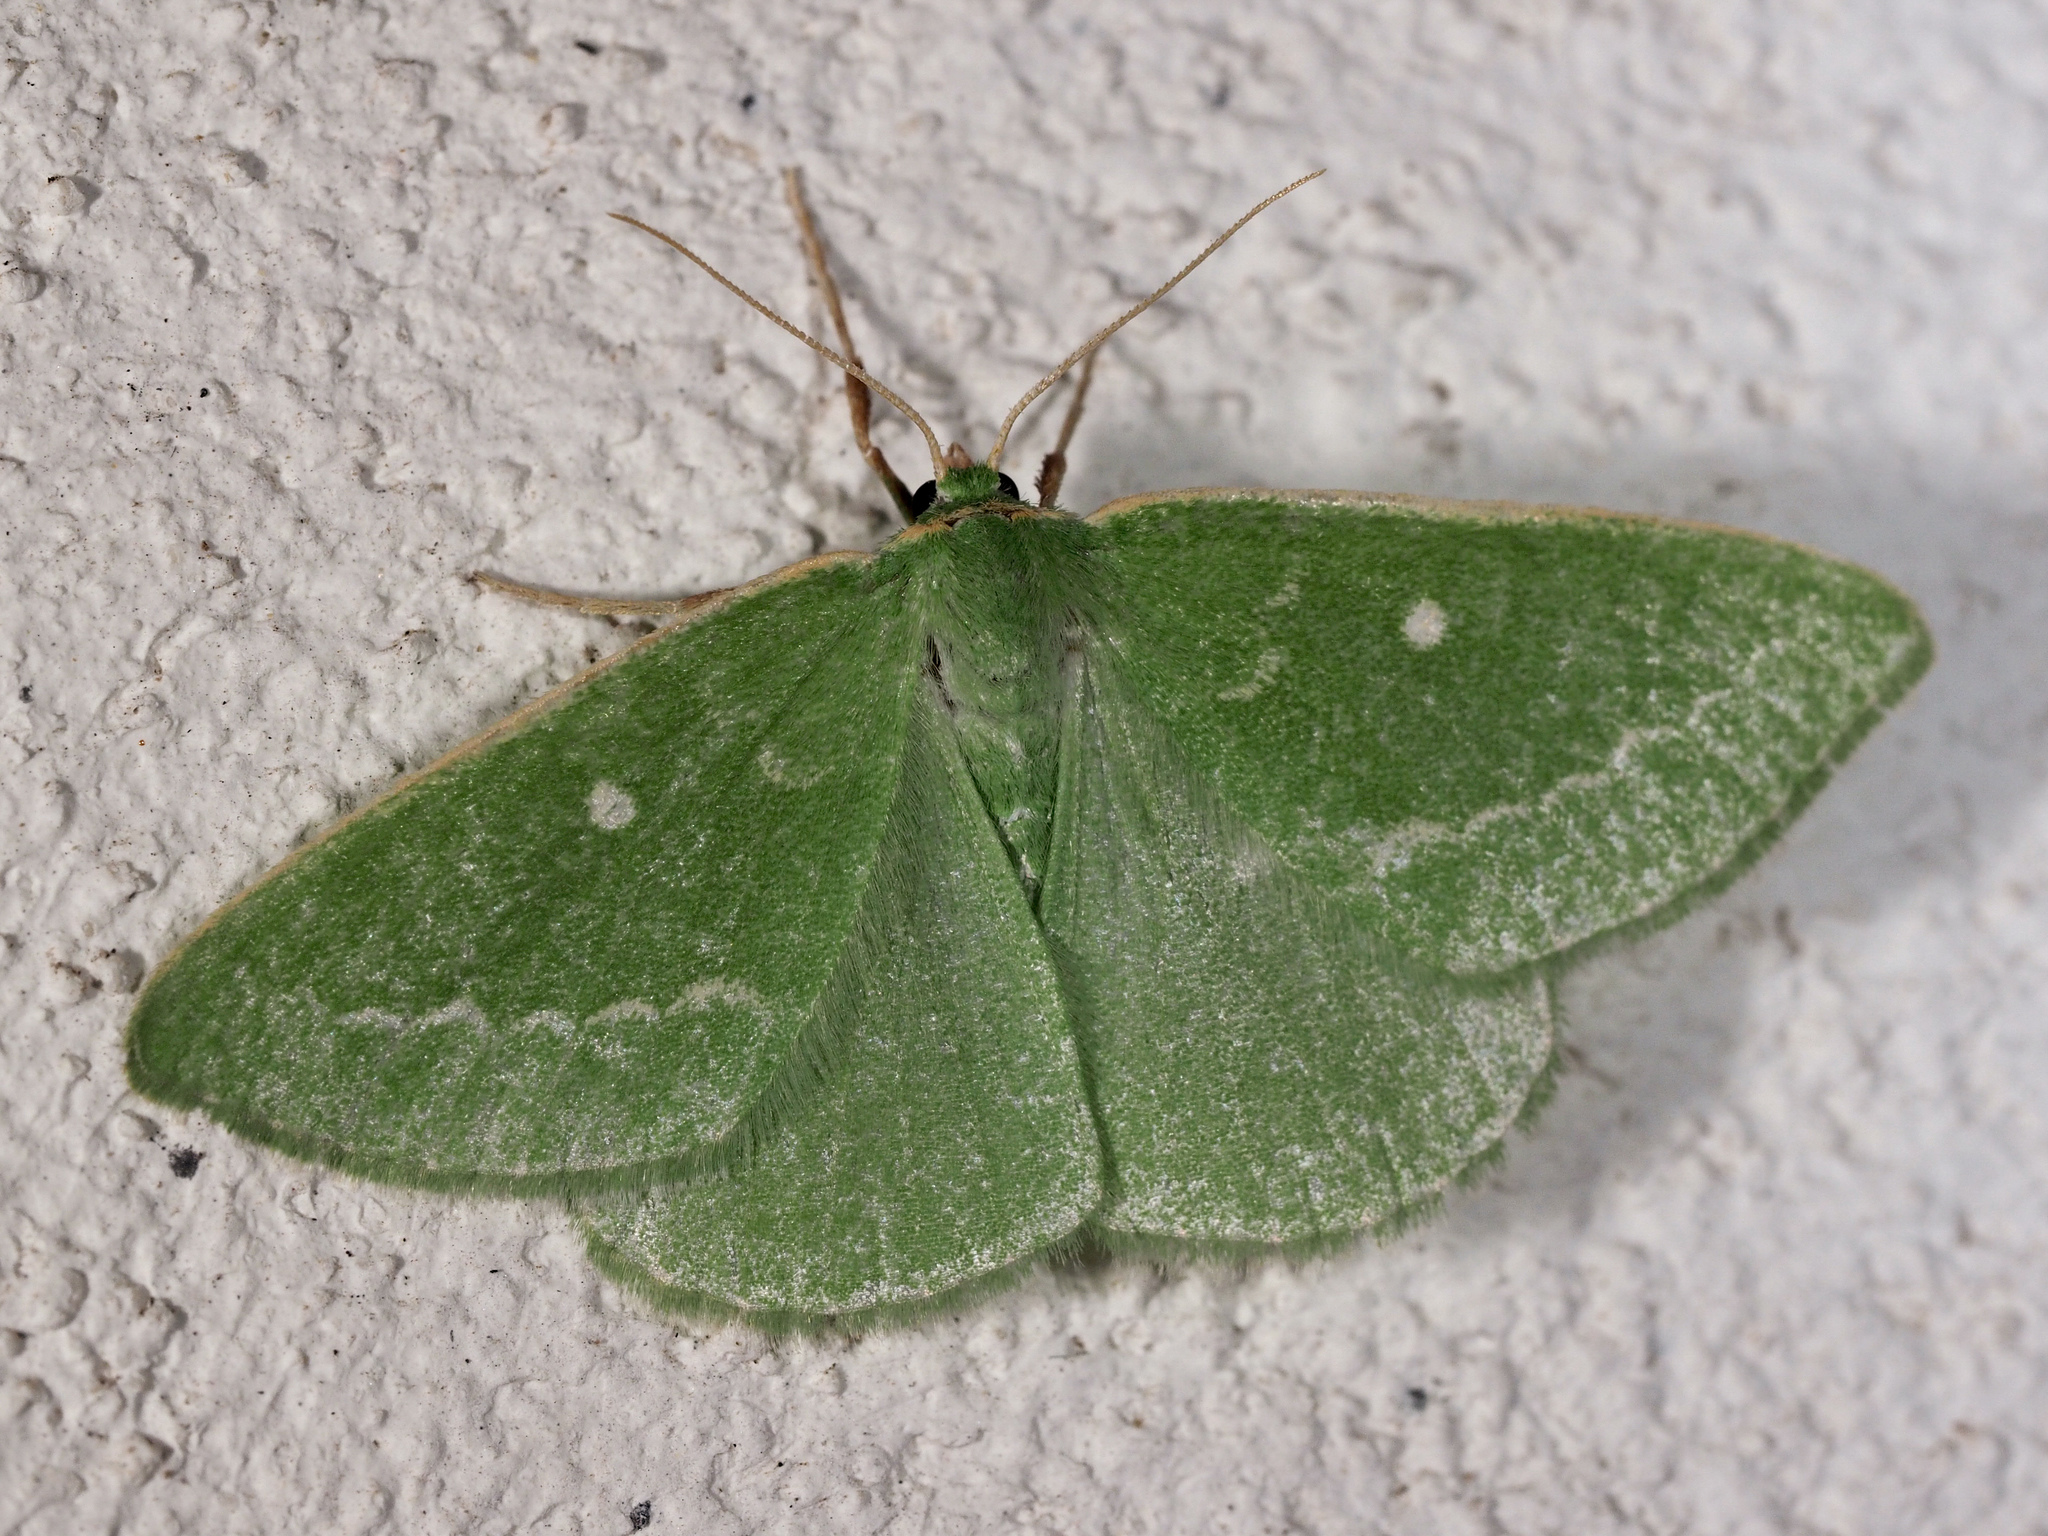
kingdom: Animalia
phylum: Arthropoda
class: Insecta
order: Lepidoptera
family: Geometridae
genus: Thetidia
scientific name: Thetidia smaragdaria
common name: Essex emerald
